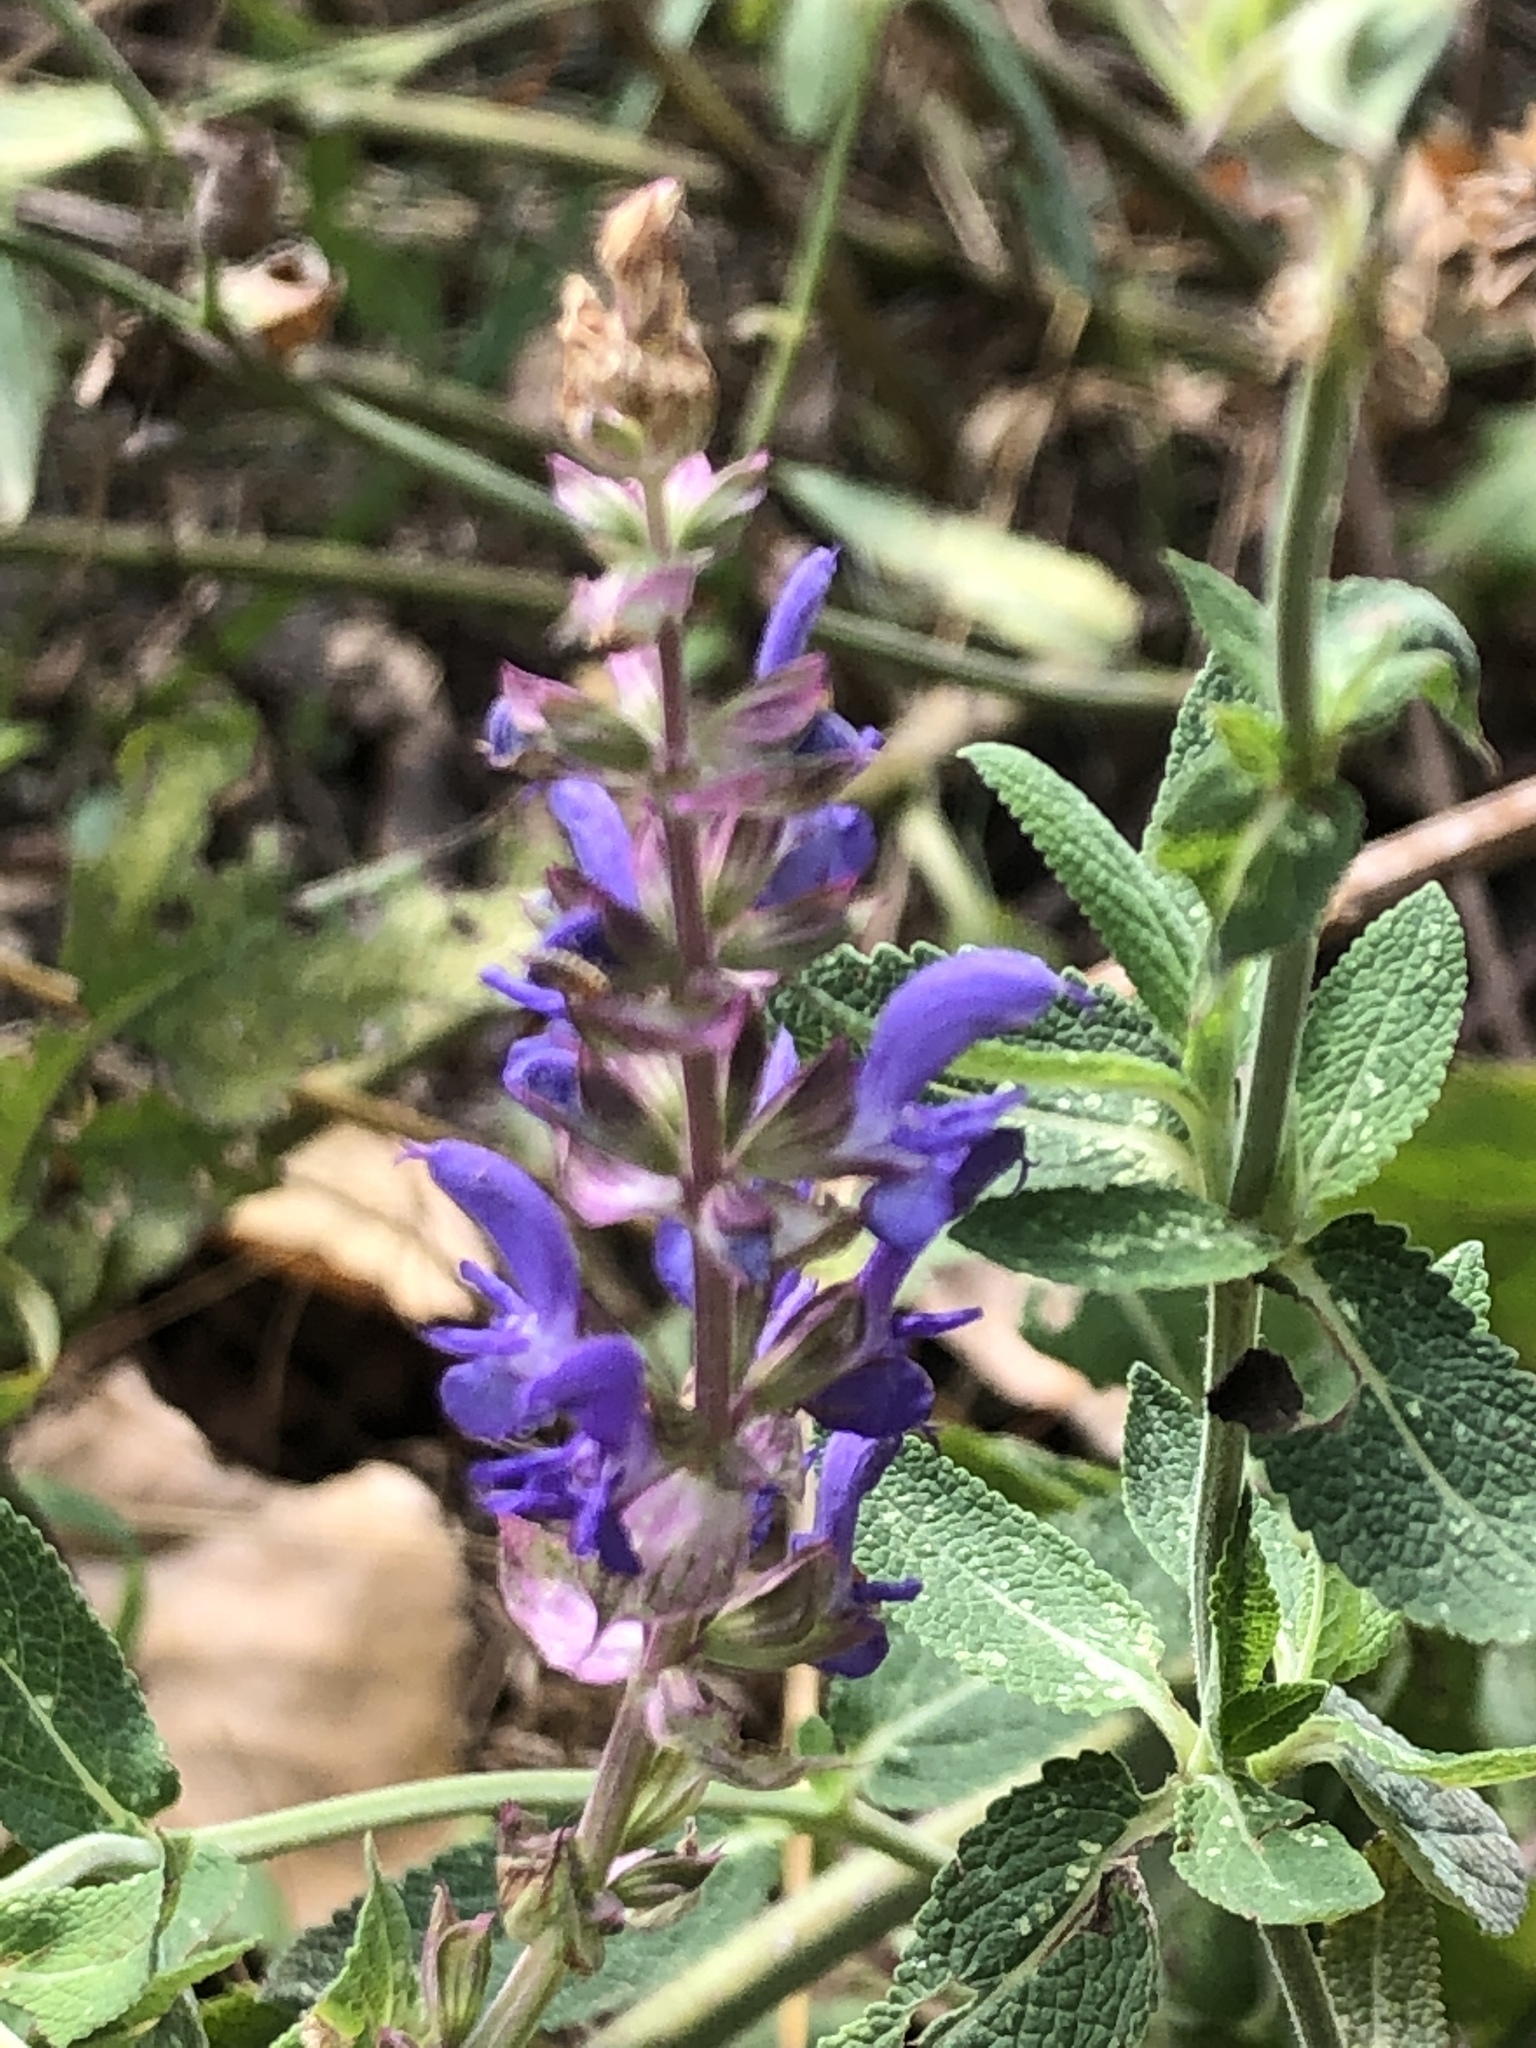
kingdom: Plantae
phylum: Tracheophyta
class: Magnoliopsida
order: Lamiales
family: Lamiaceae
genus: Salvia
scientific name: Salvia pratensis
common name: Meadow sage
